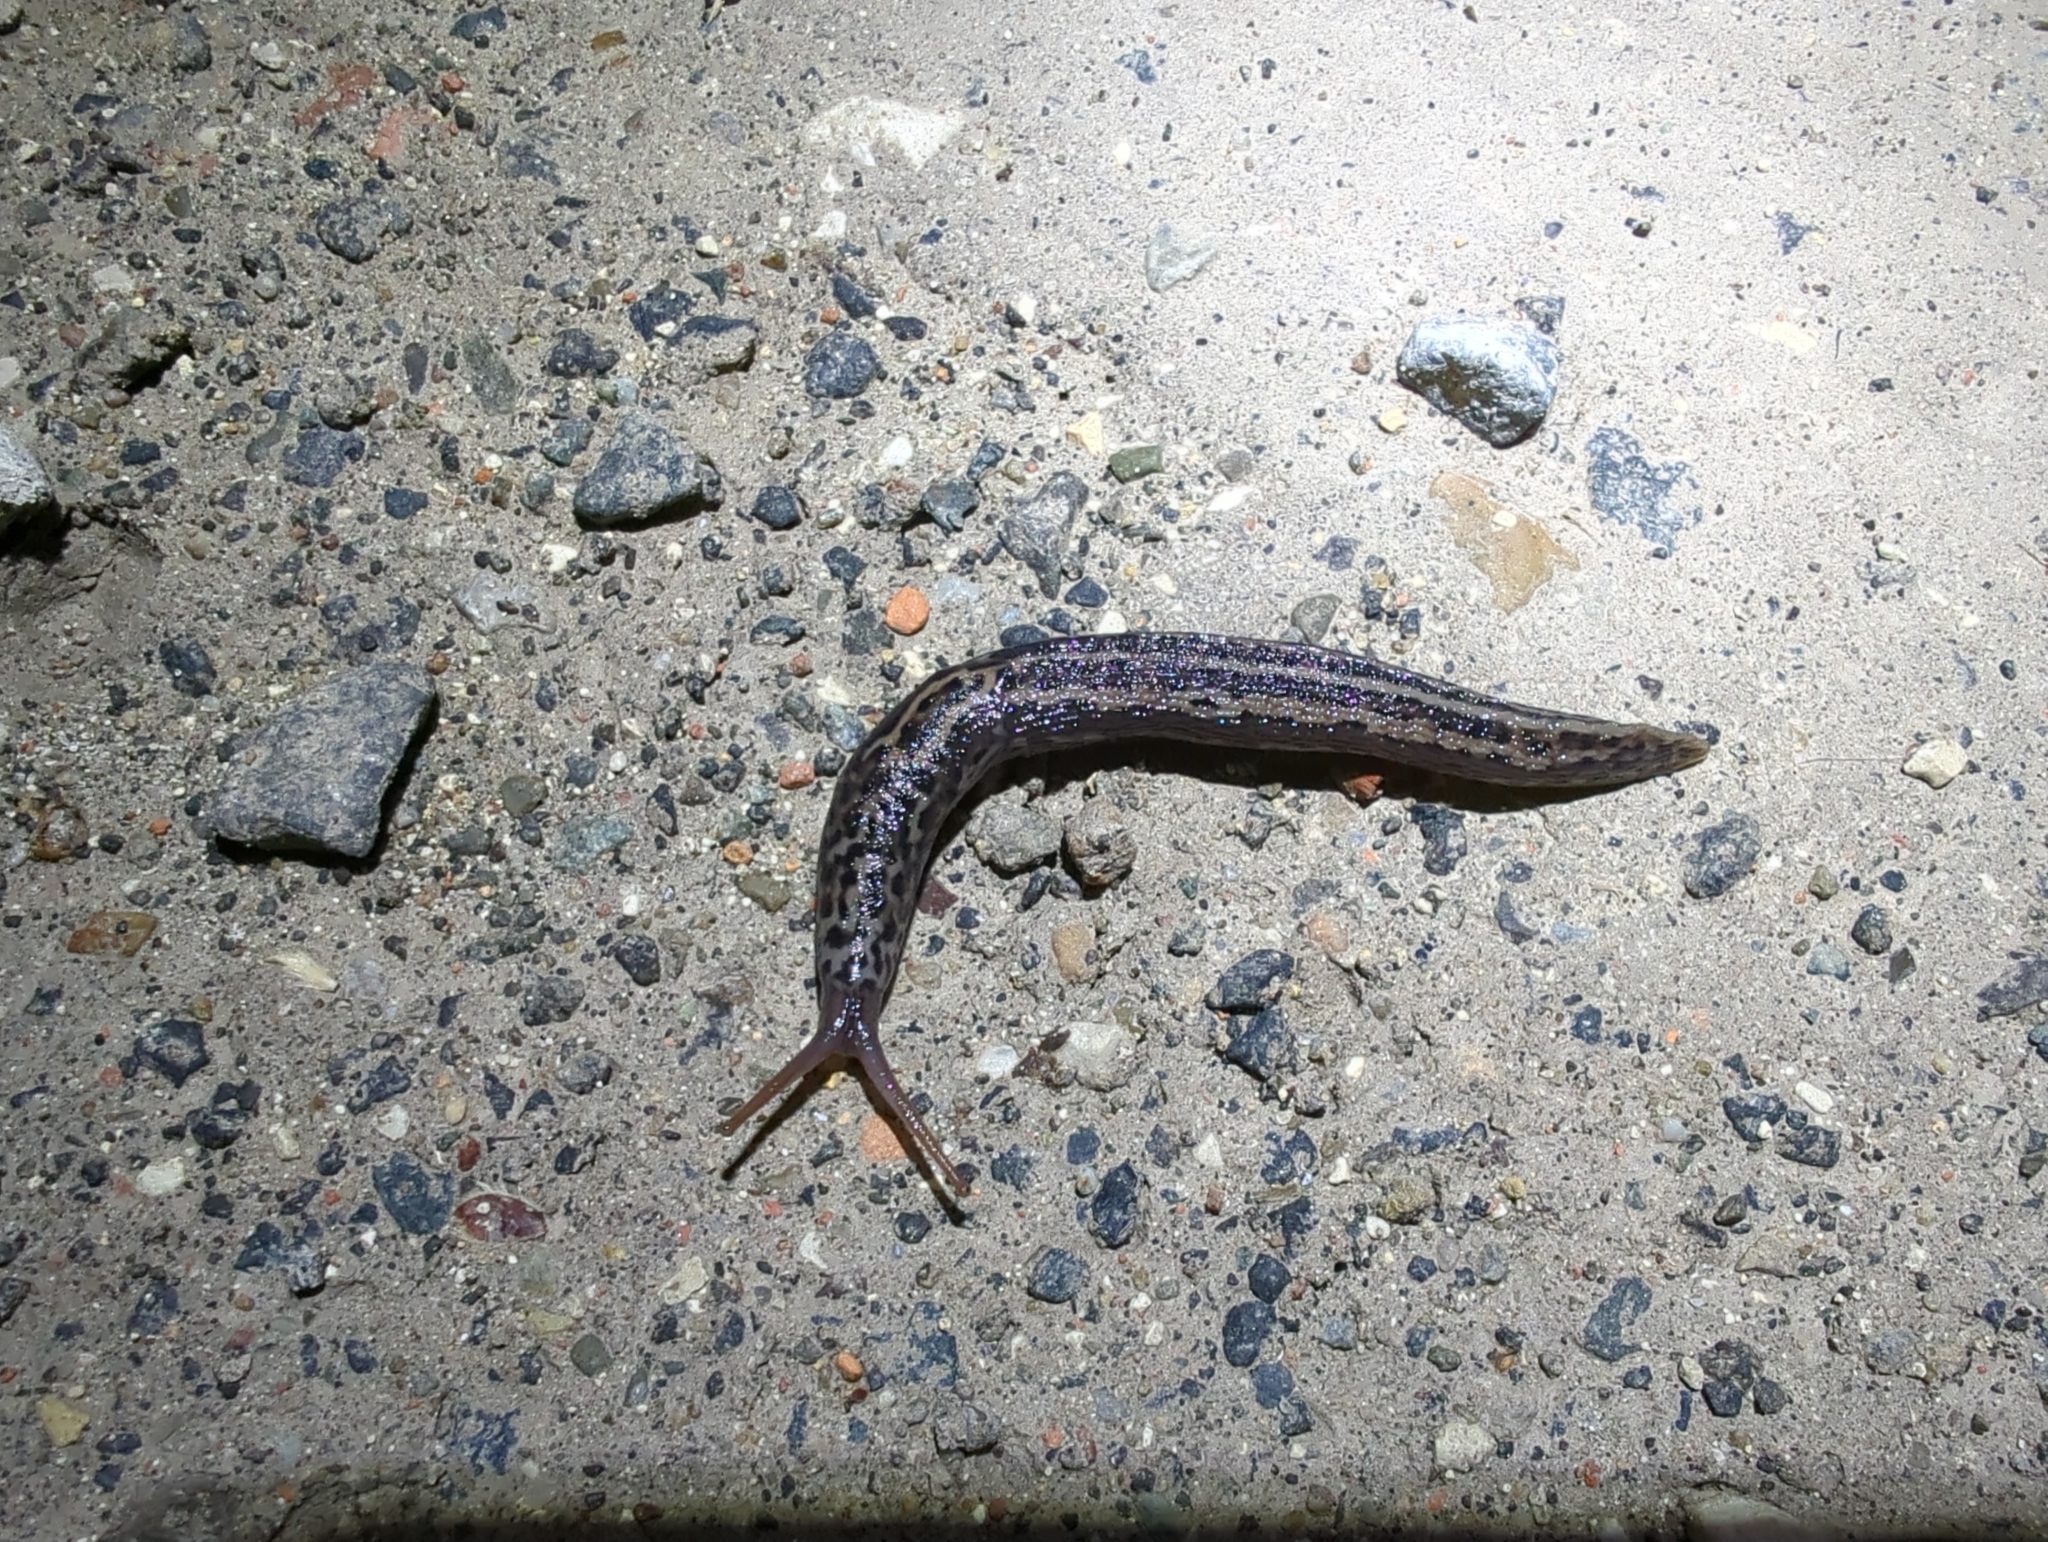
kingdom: Animalia
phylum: Mollusca
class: Gastropoda
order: Stylommatophora
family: Limacidae
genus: Limax
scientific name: Limax maximus
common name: Great grey slug
